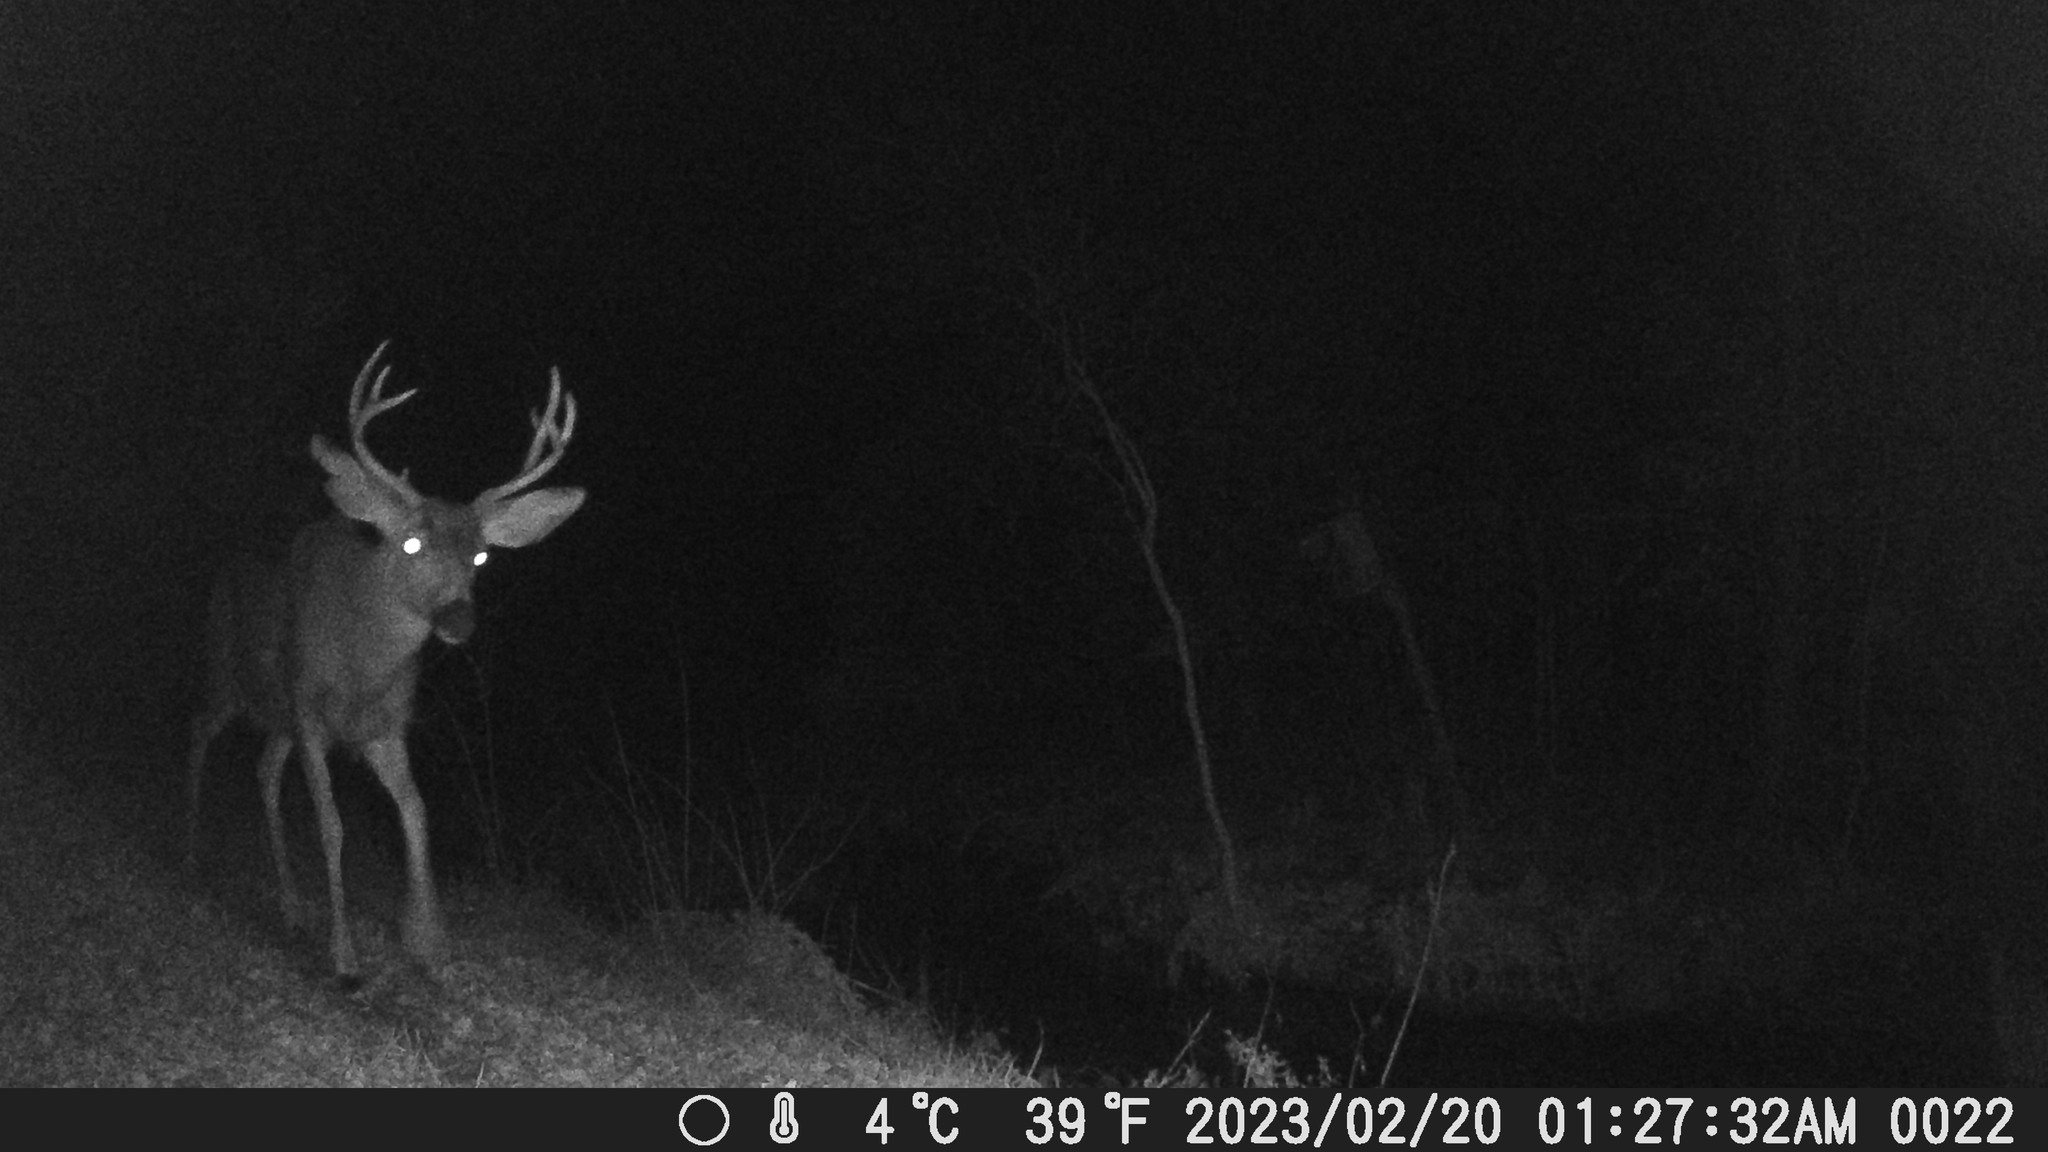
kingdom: Animalia
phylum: Chordata
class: Mammalia
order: Artiodactyla
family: Cervidae
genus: Odocoileus
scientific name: Odocoileus hemionus
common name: Mule deer
